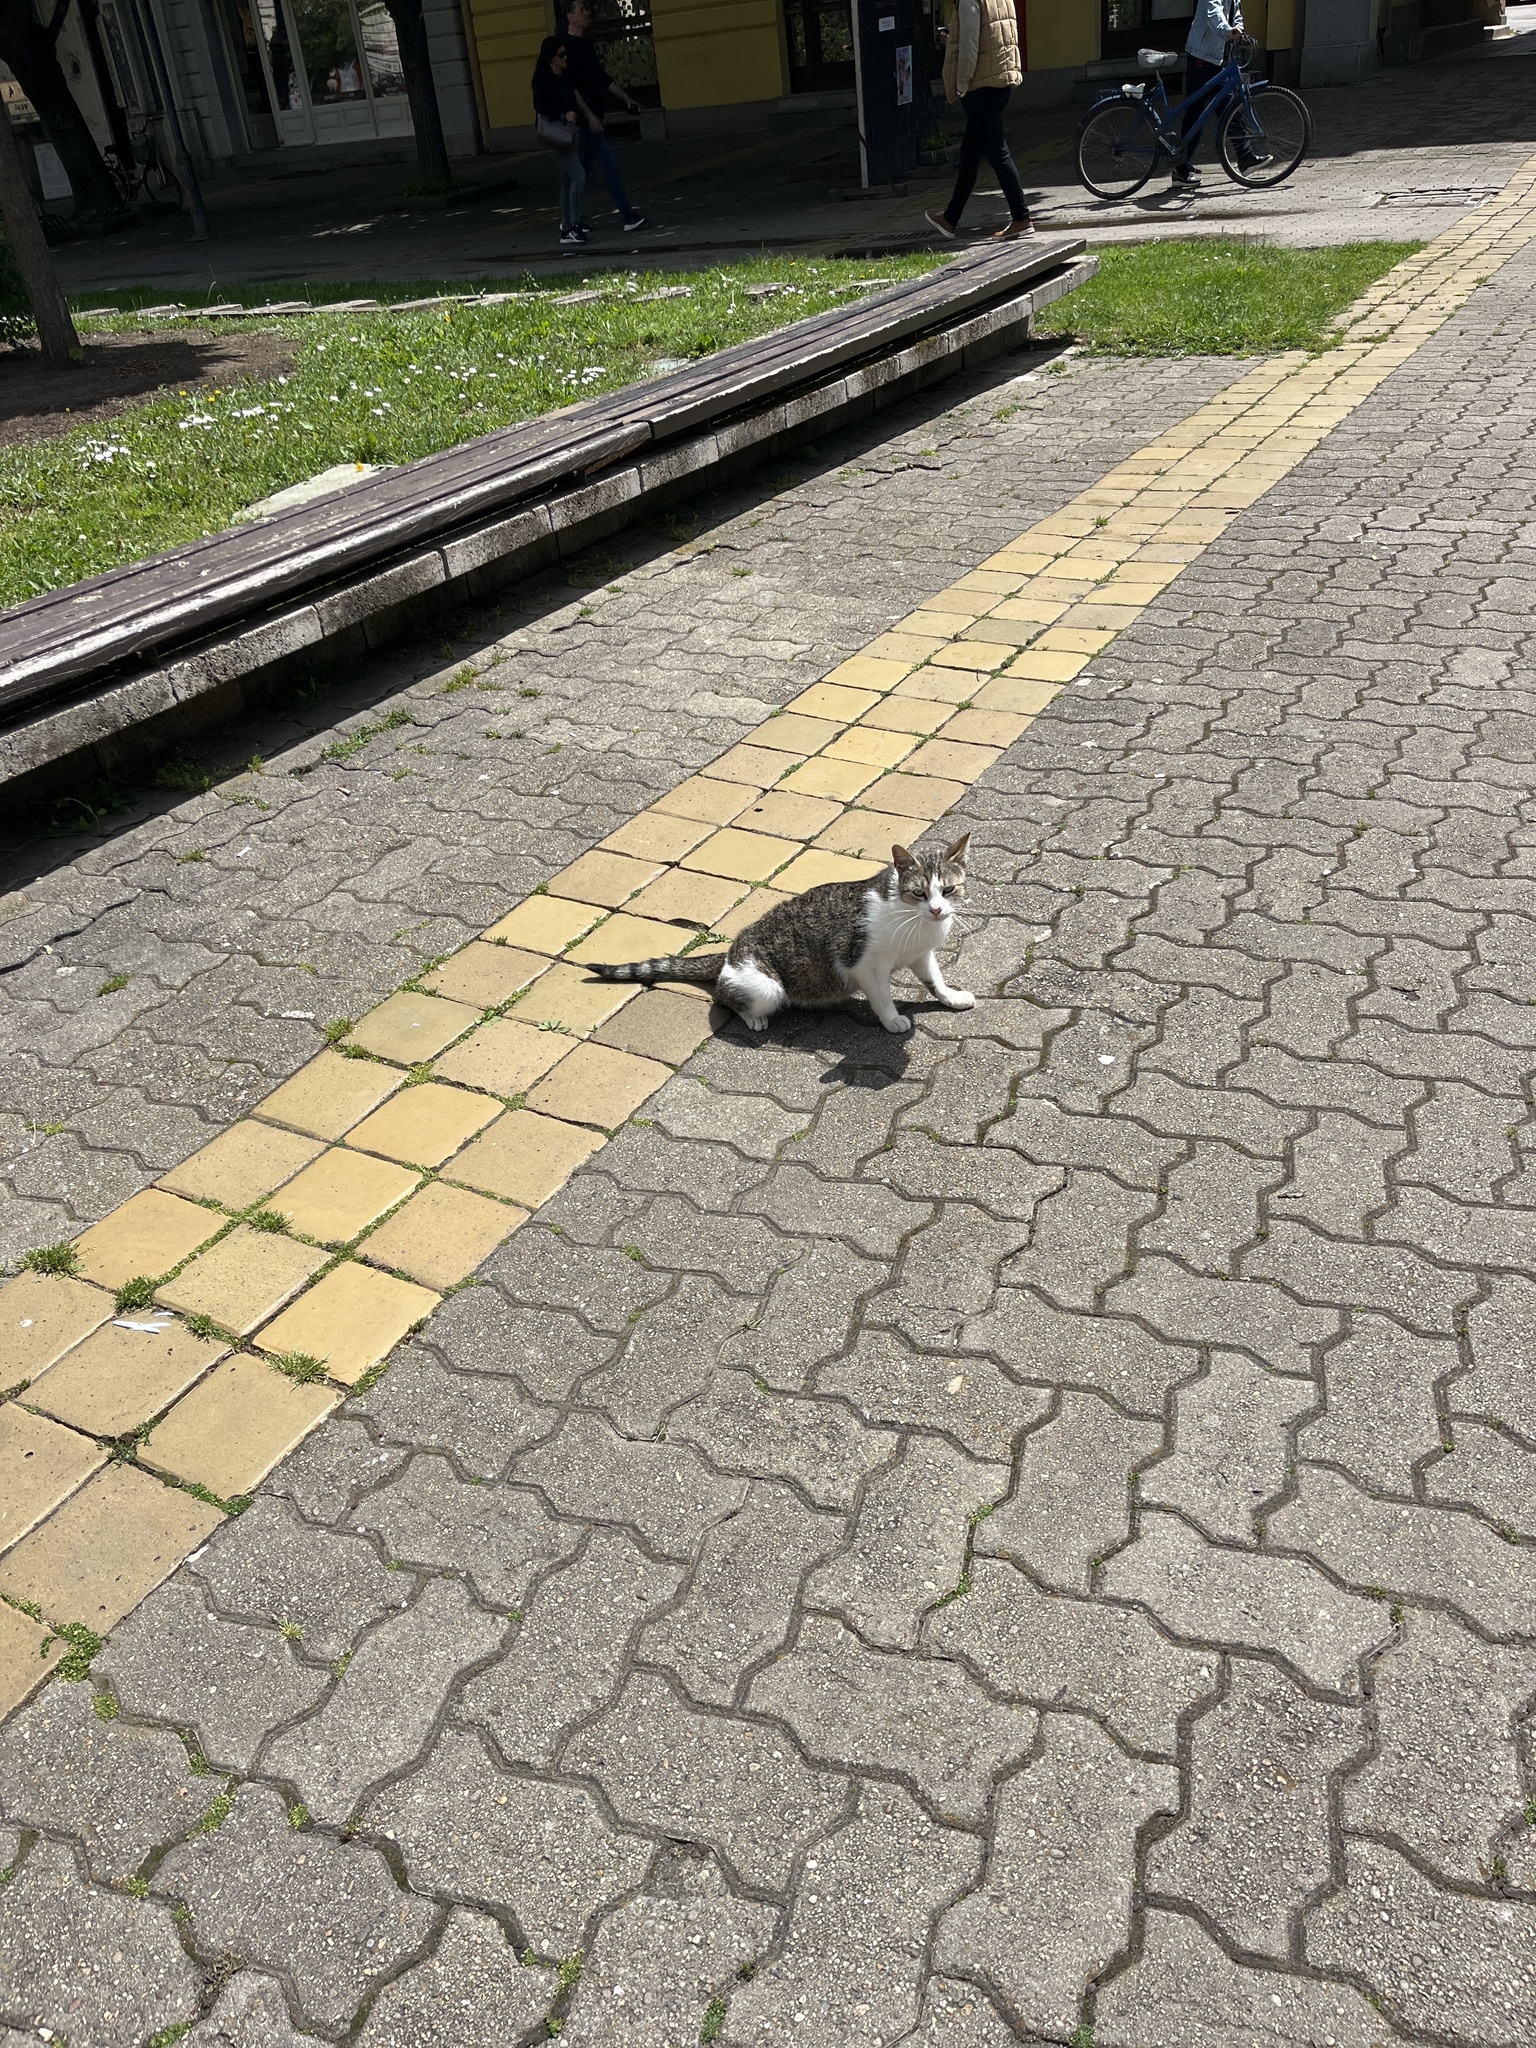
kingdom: Animalia
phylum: Chordata
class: Mammalia
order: Carnivora
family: Felidae
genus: Felis
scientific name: Felis catus
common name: Domestic cat
